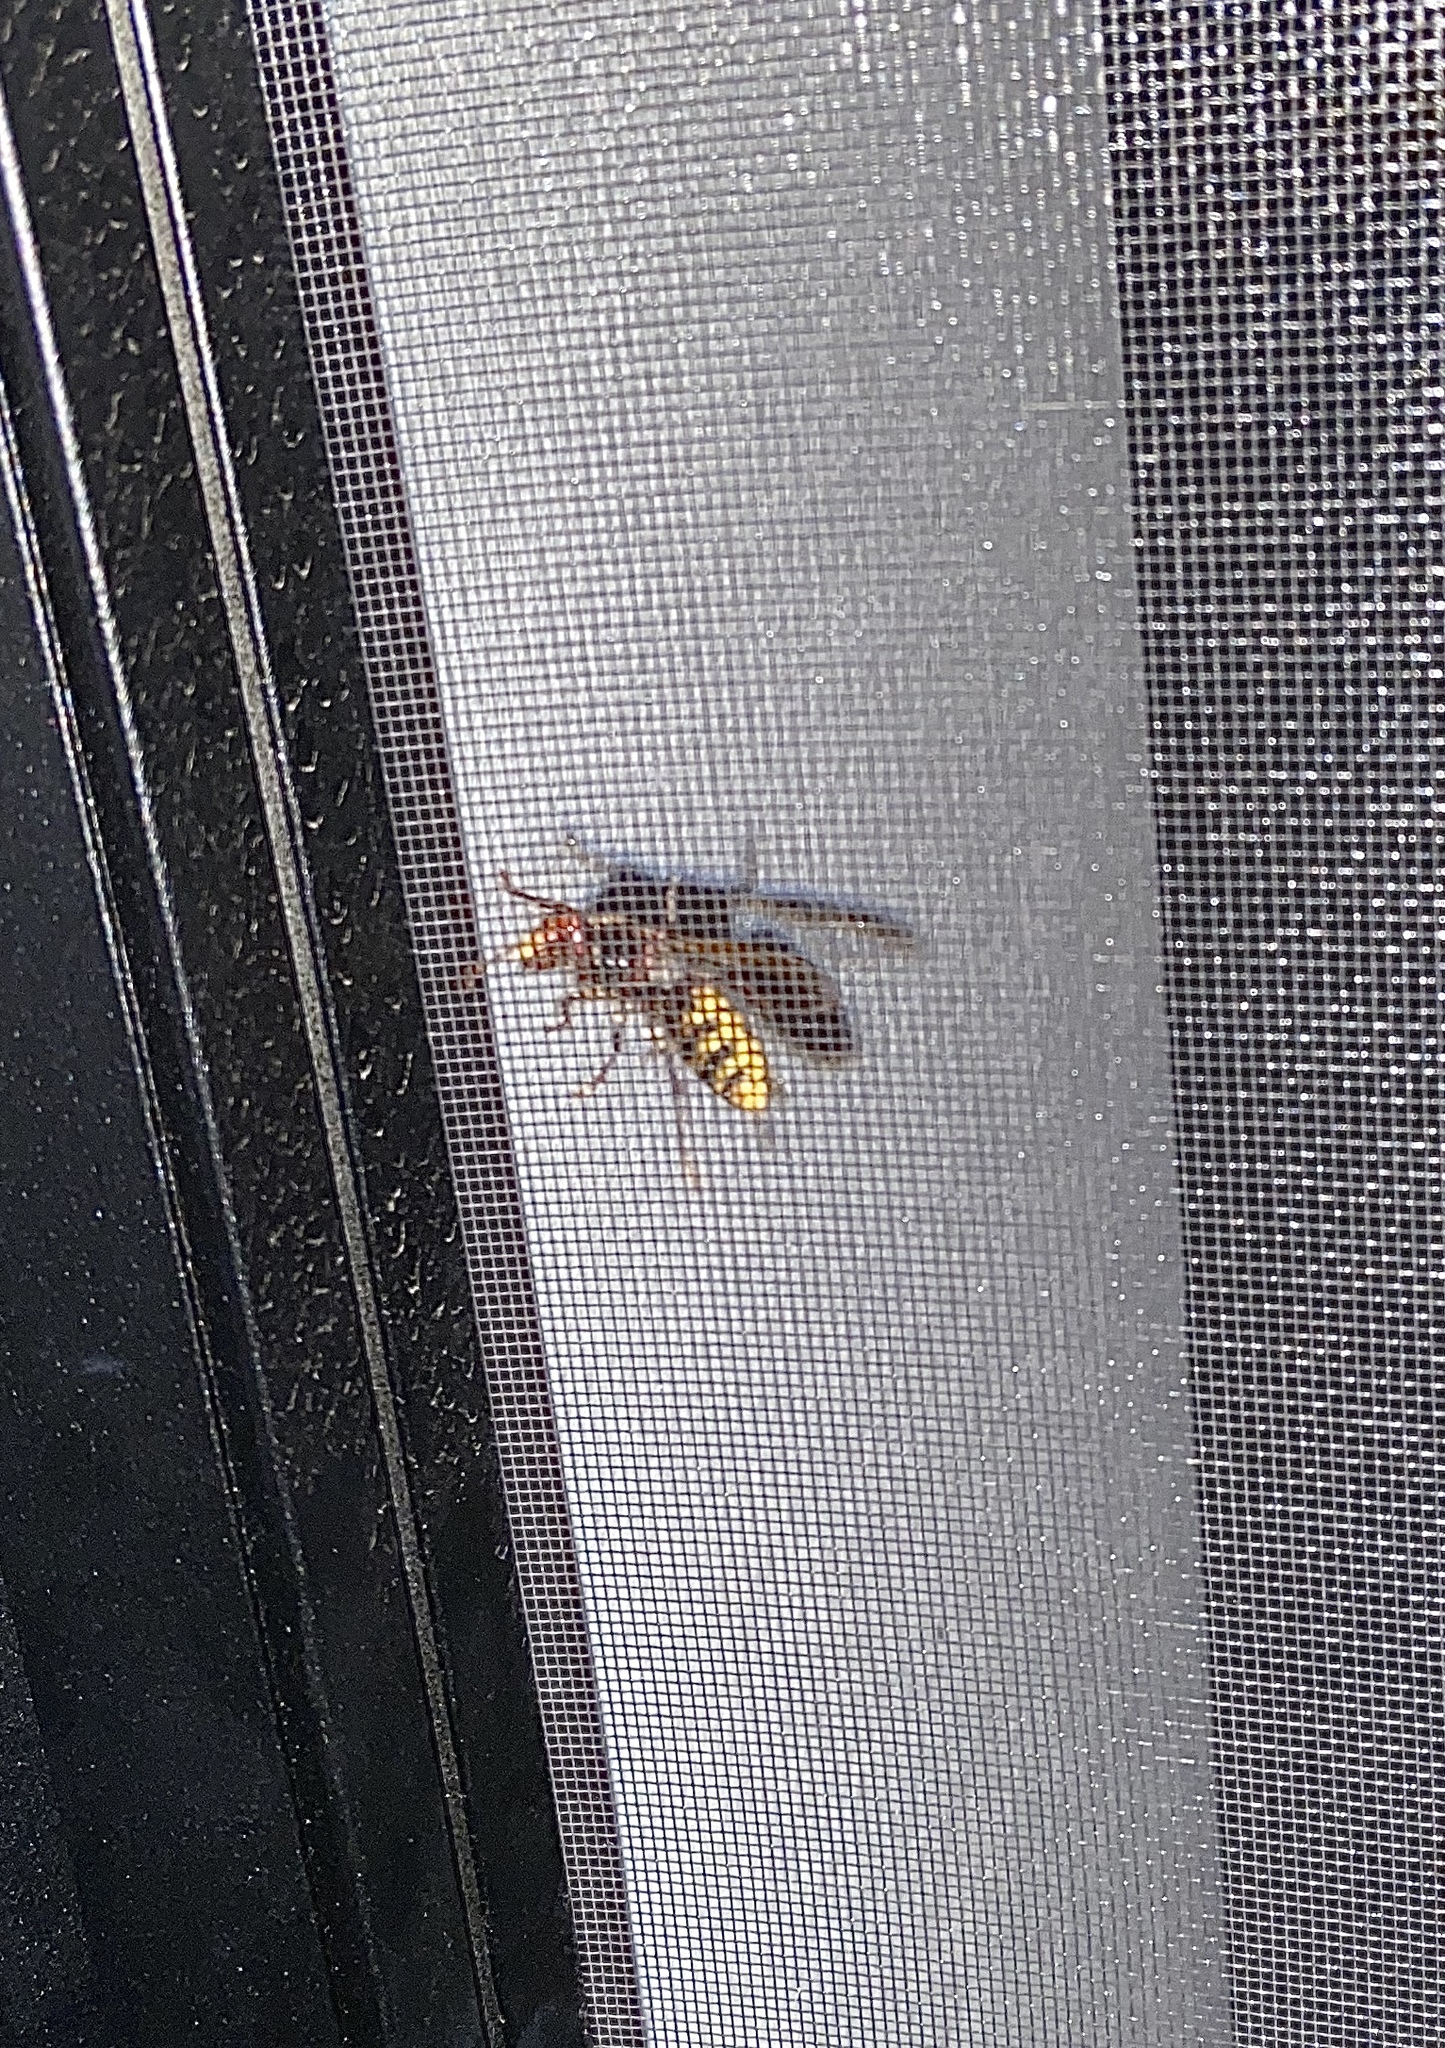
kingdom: Animalia
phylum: Arthropoda
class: Insecta
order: Hymenoptera
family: Vespidae
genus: Vespa
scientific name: Vespa crabro
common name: Hornet
